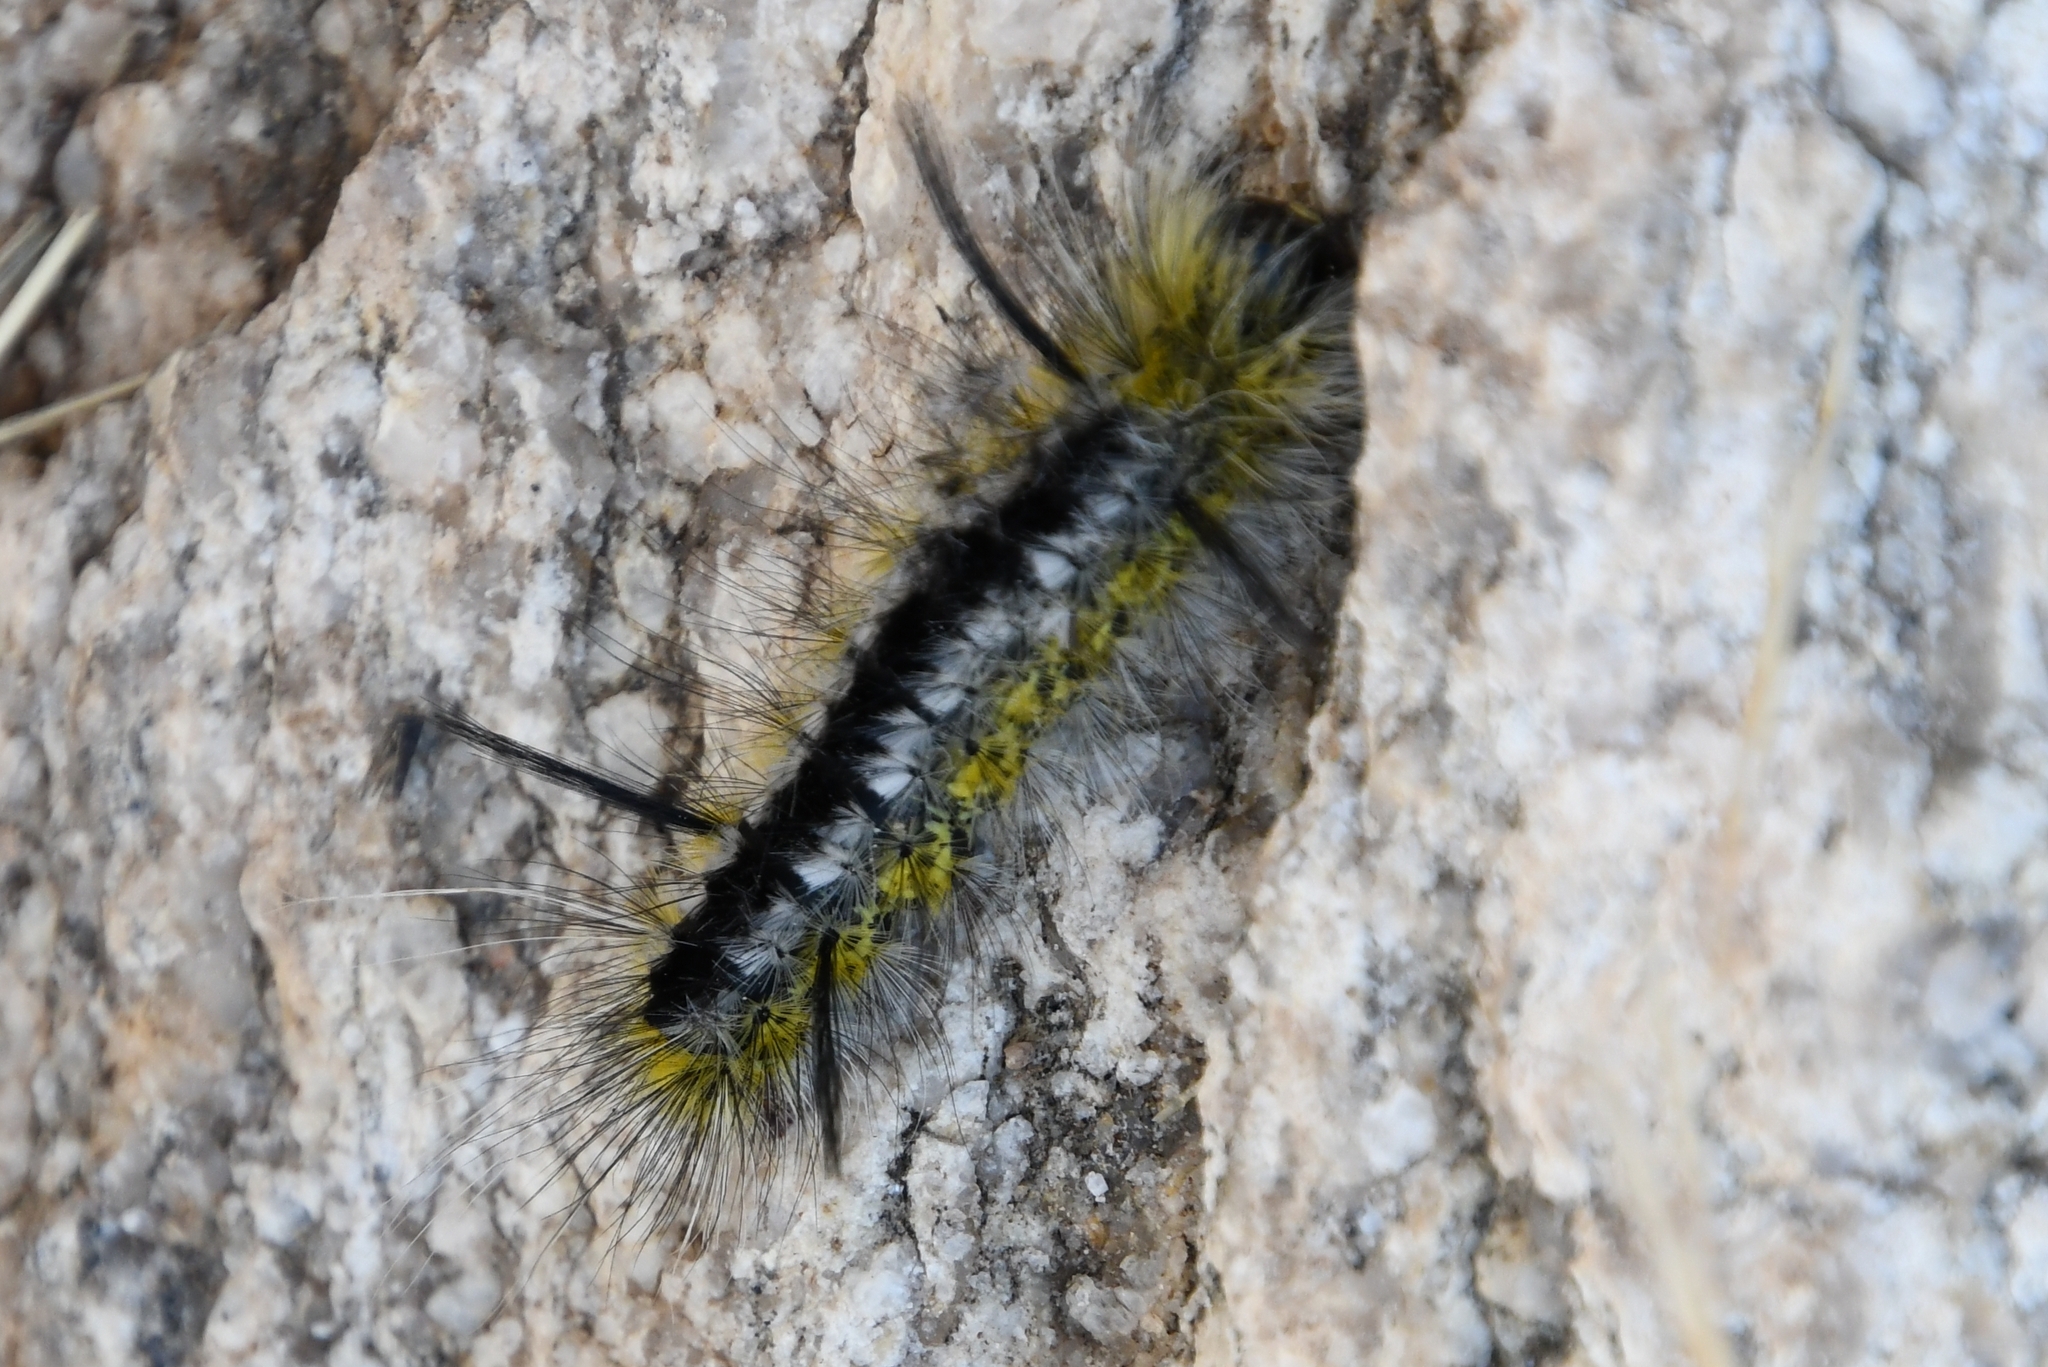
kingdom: Animalia
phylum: Arthropoda
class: Insecta
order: Lepidoptera
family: Erebidae
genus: Lophocampa
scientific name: Lophocampa mixta
